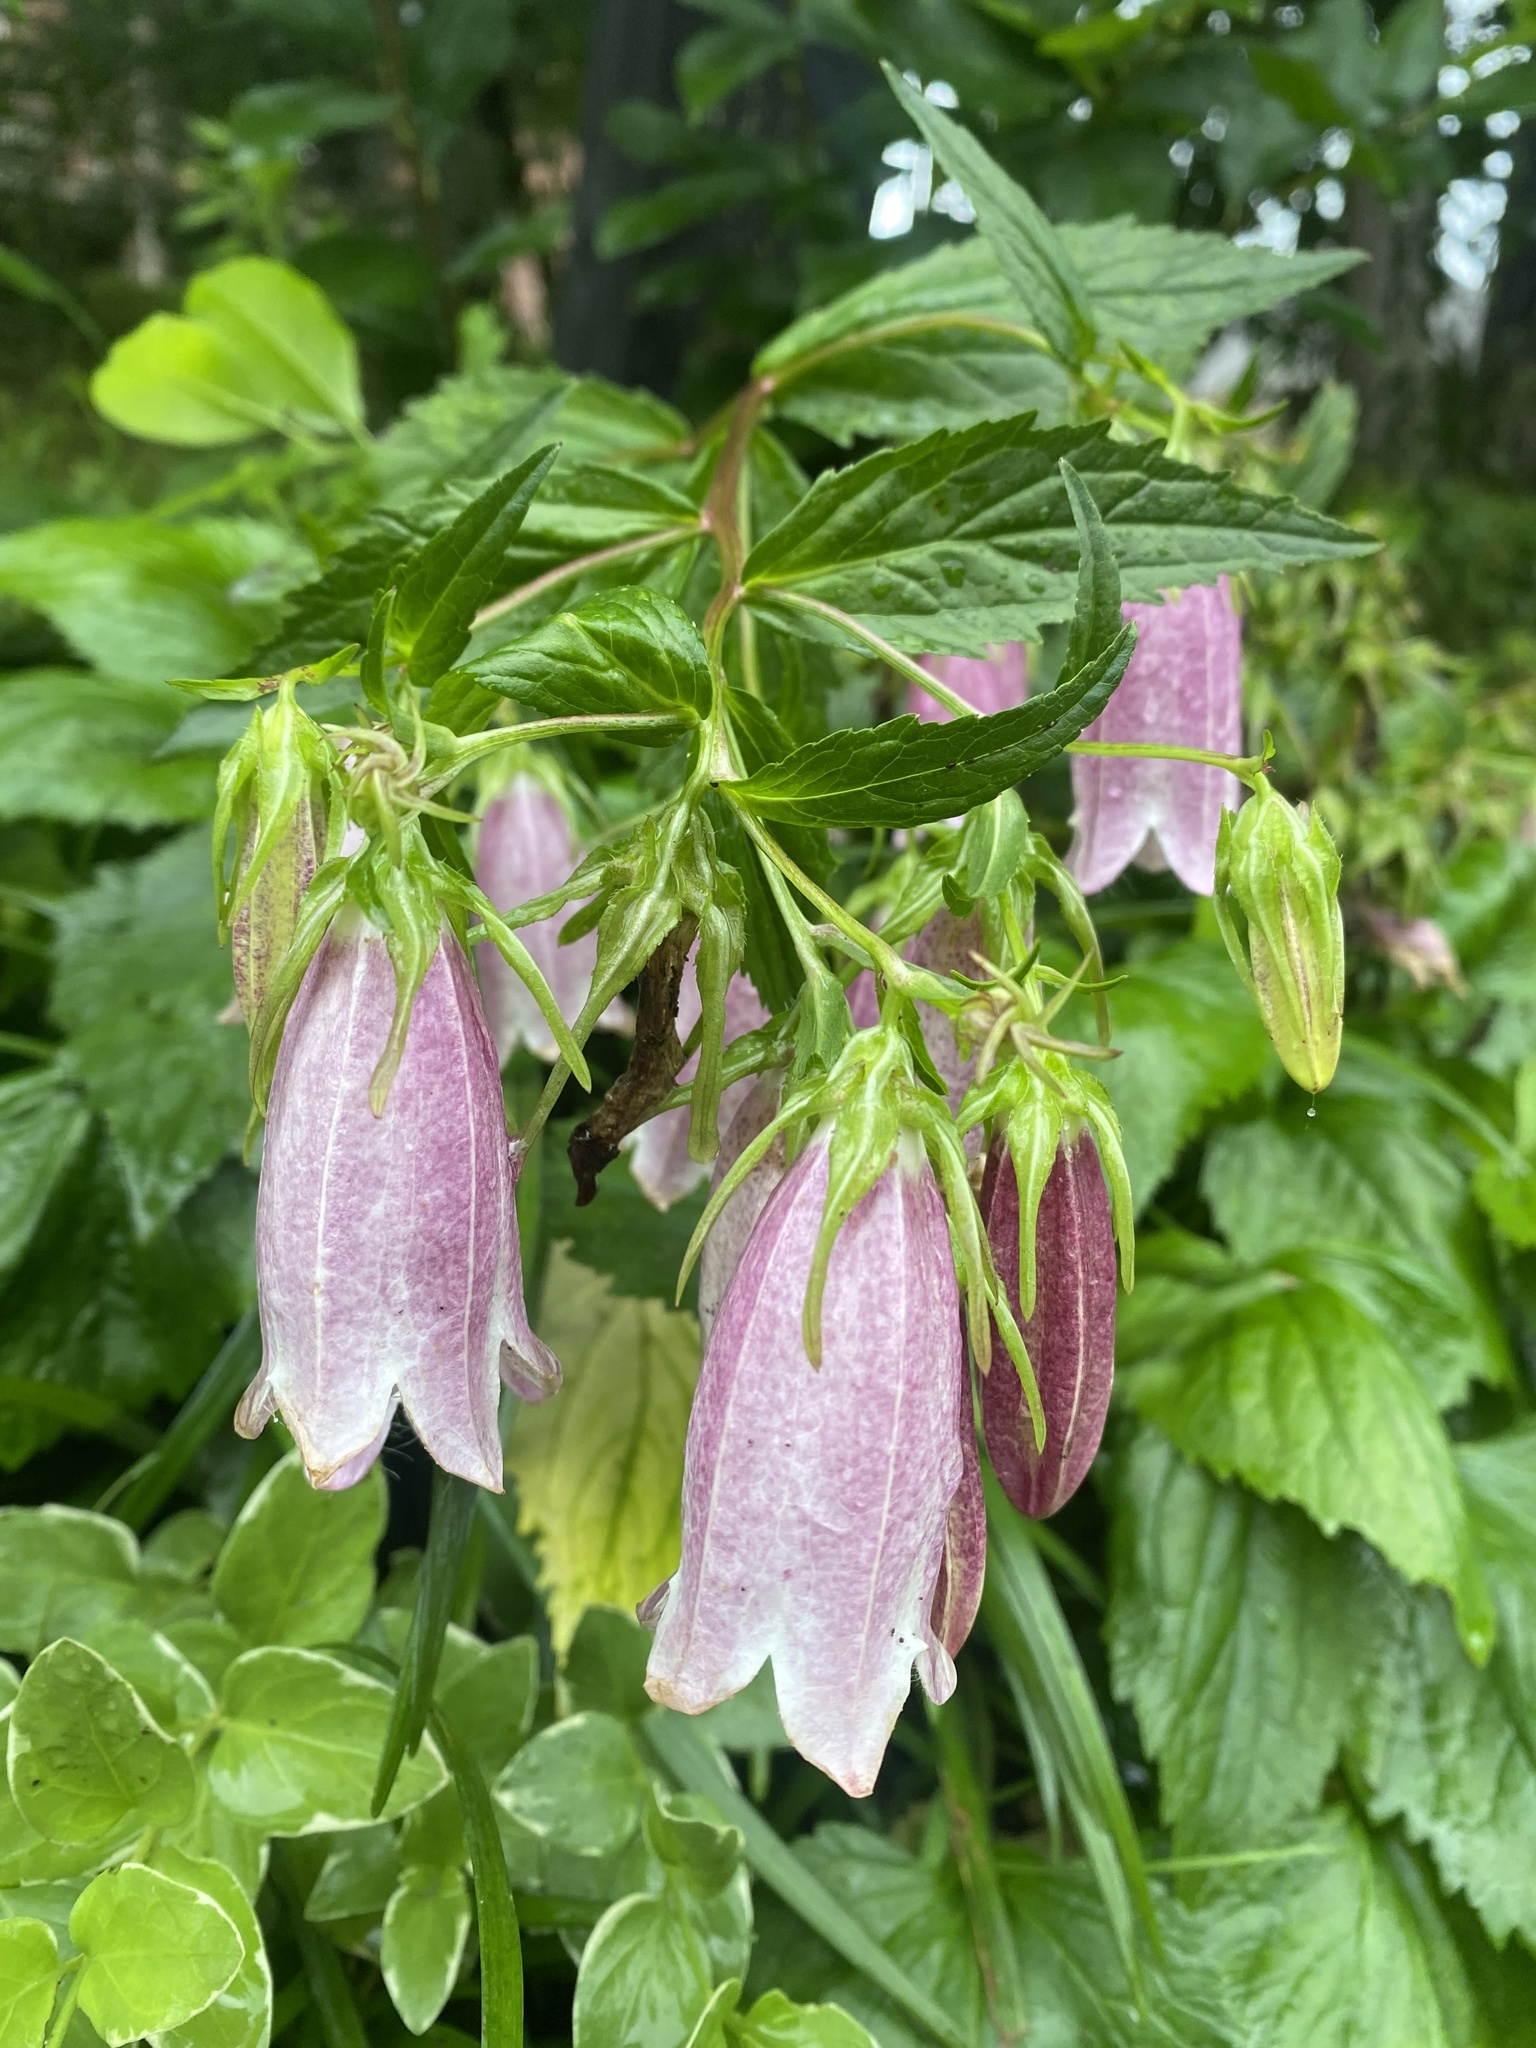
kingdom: Plantae
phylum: Tracheophyta
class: Magnoliopsida
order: Asterales
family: Campanulaceae
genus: Campanula
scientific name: Campanula punctata
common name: Spotted bellflower
